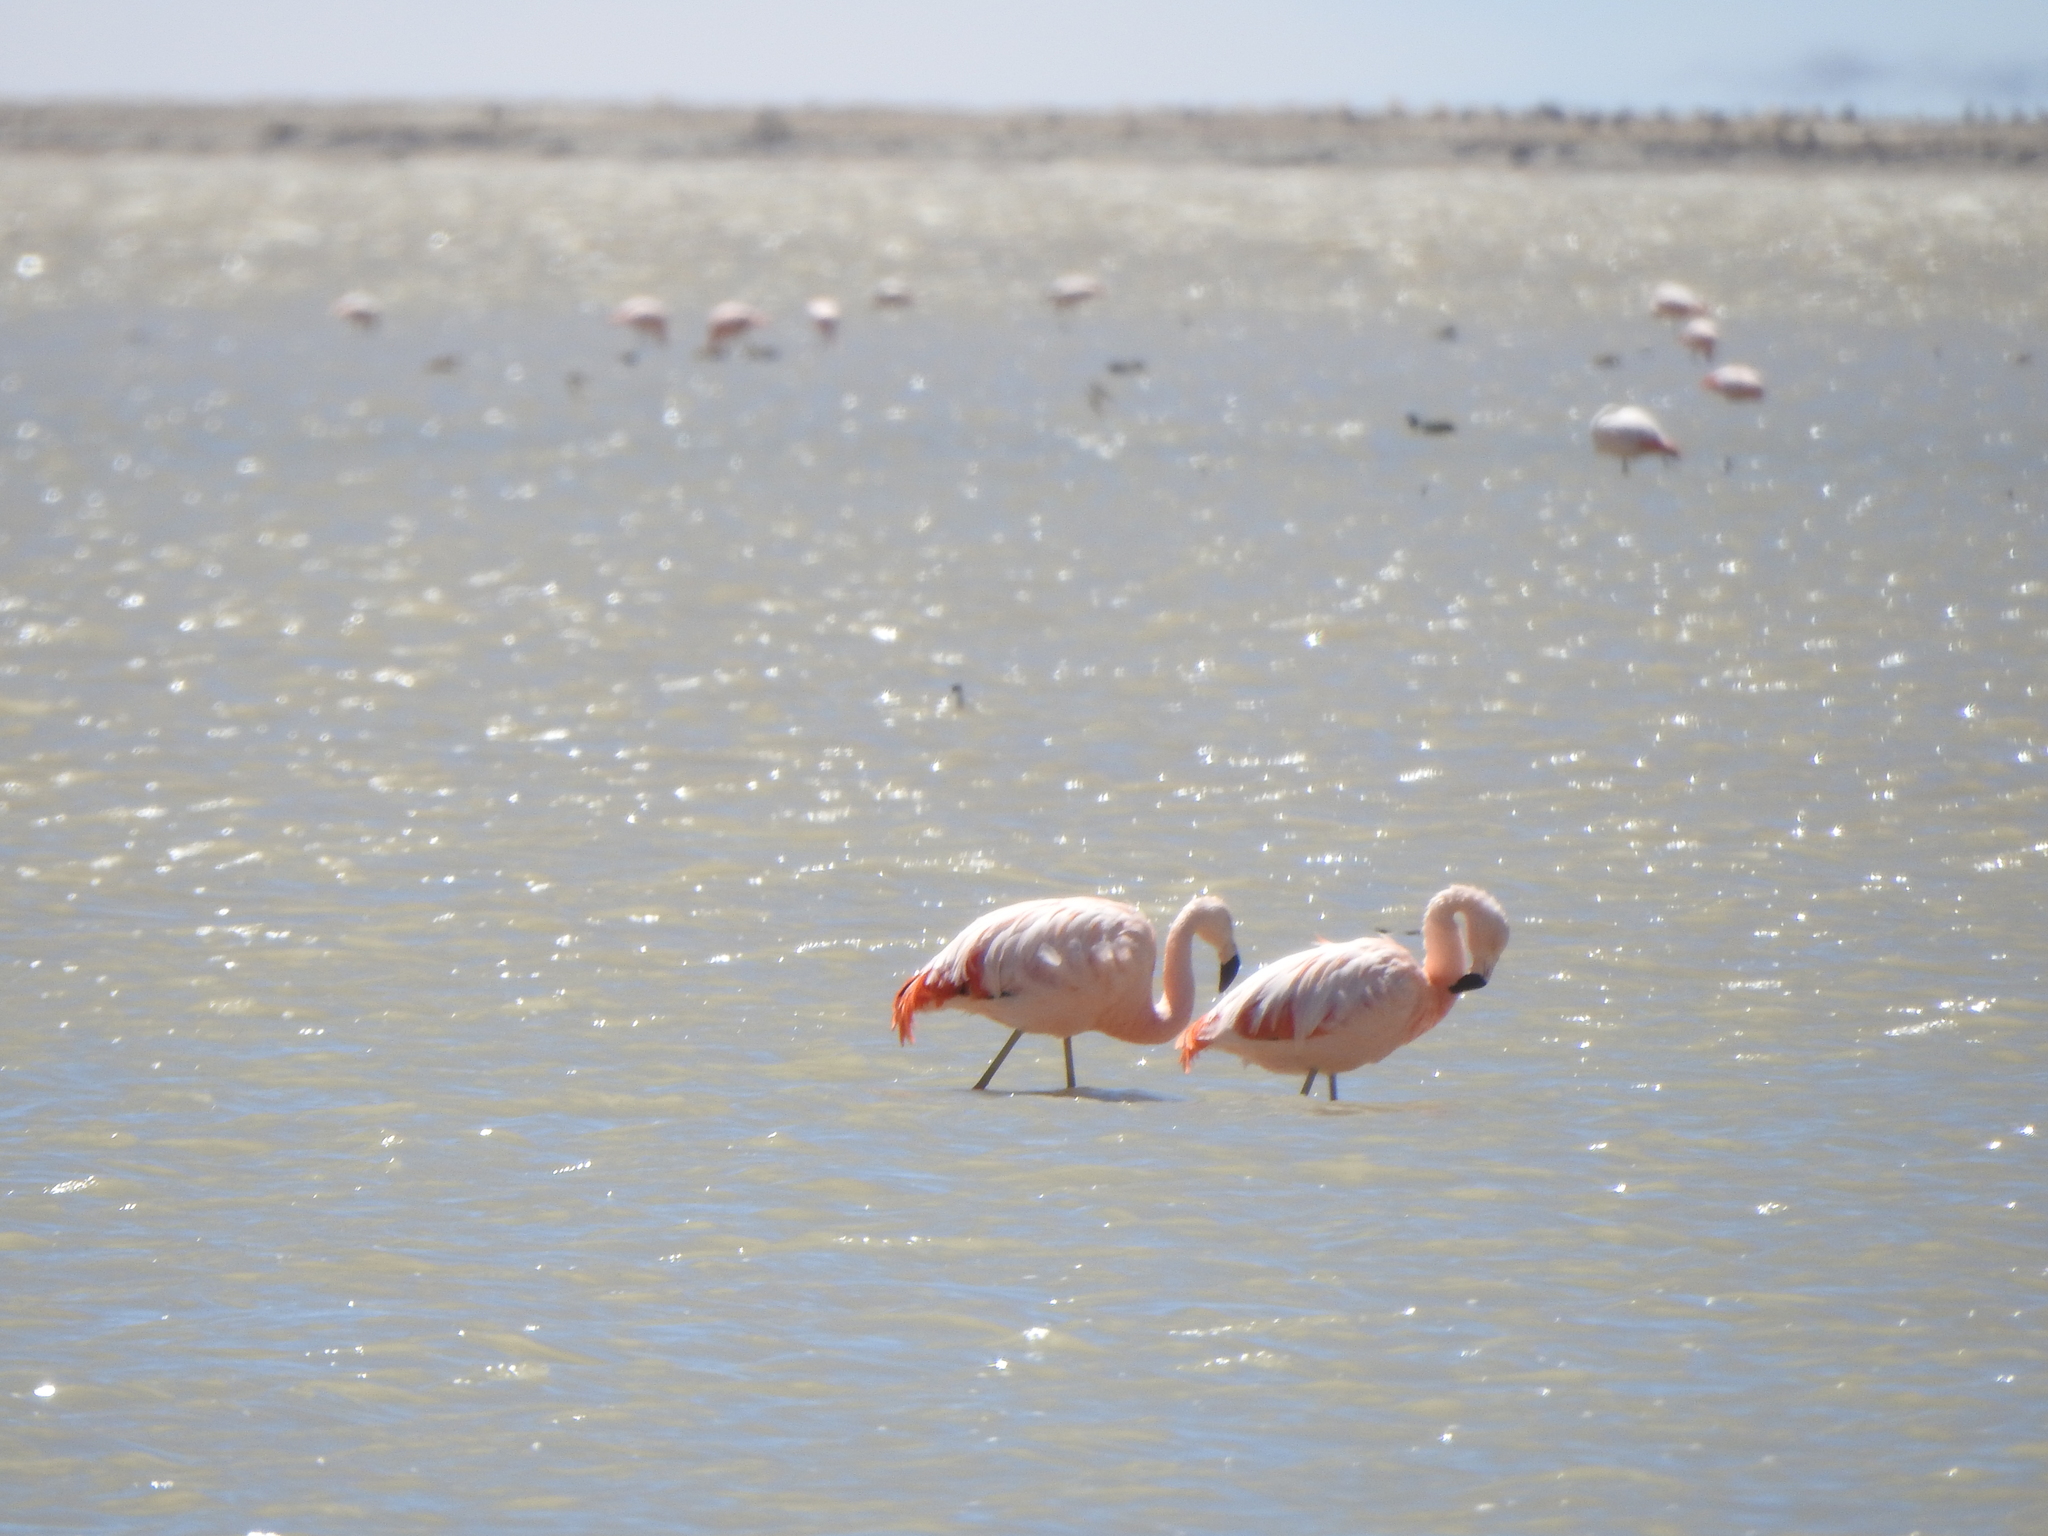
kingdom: Animalia
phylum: Chordata
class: Aves
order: Phoenicopteriformes
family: Phoenicopteridae
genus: Phoenicopterus
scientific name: Phoenicopterus chilensis
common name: Chilean flamingo
